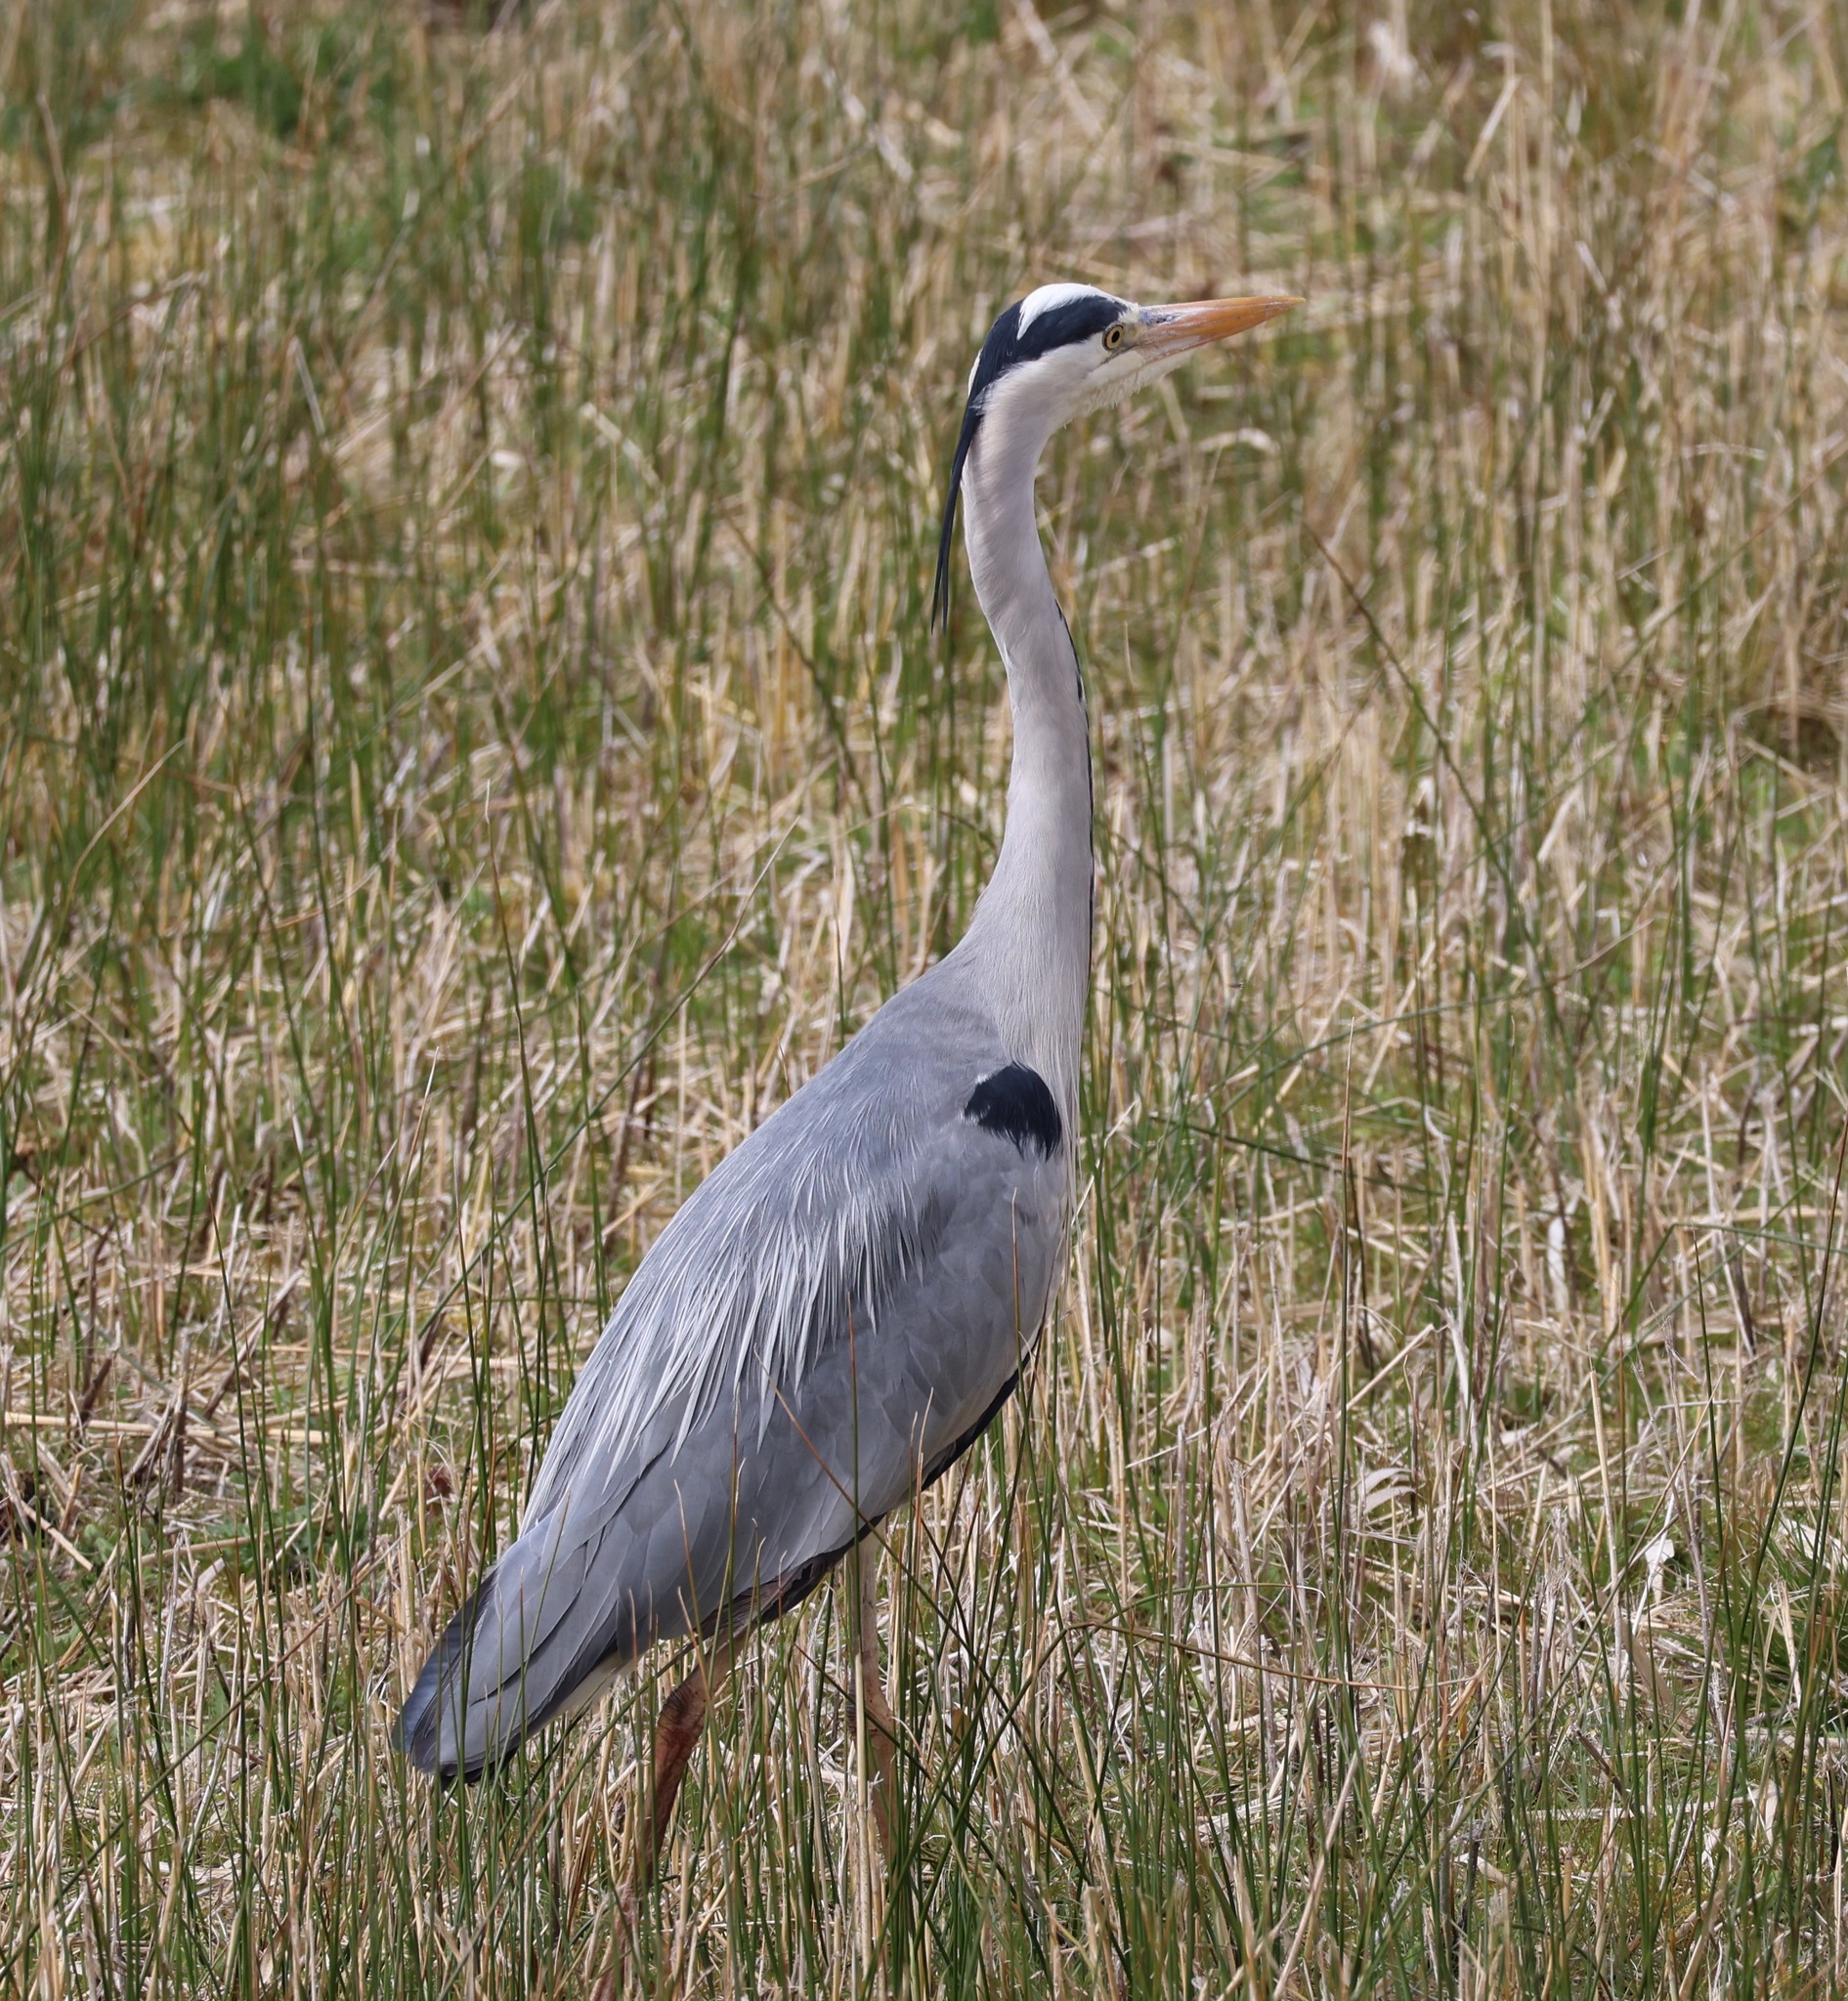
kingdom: Animalia
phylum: Chordata
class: Aves
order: Pelecaniformes
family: Ardeidae
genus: Ardea
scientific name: Ardea cinerea
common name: Grey heron
